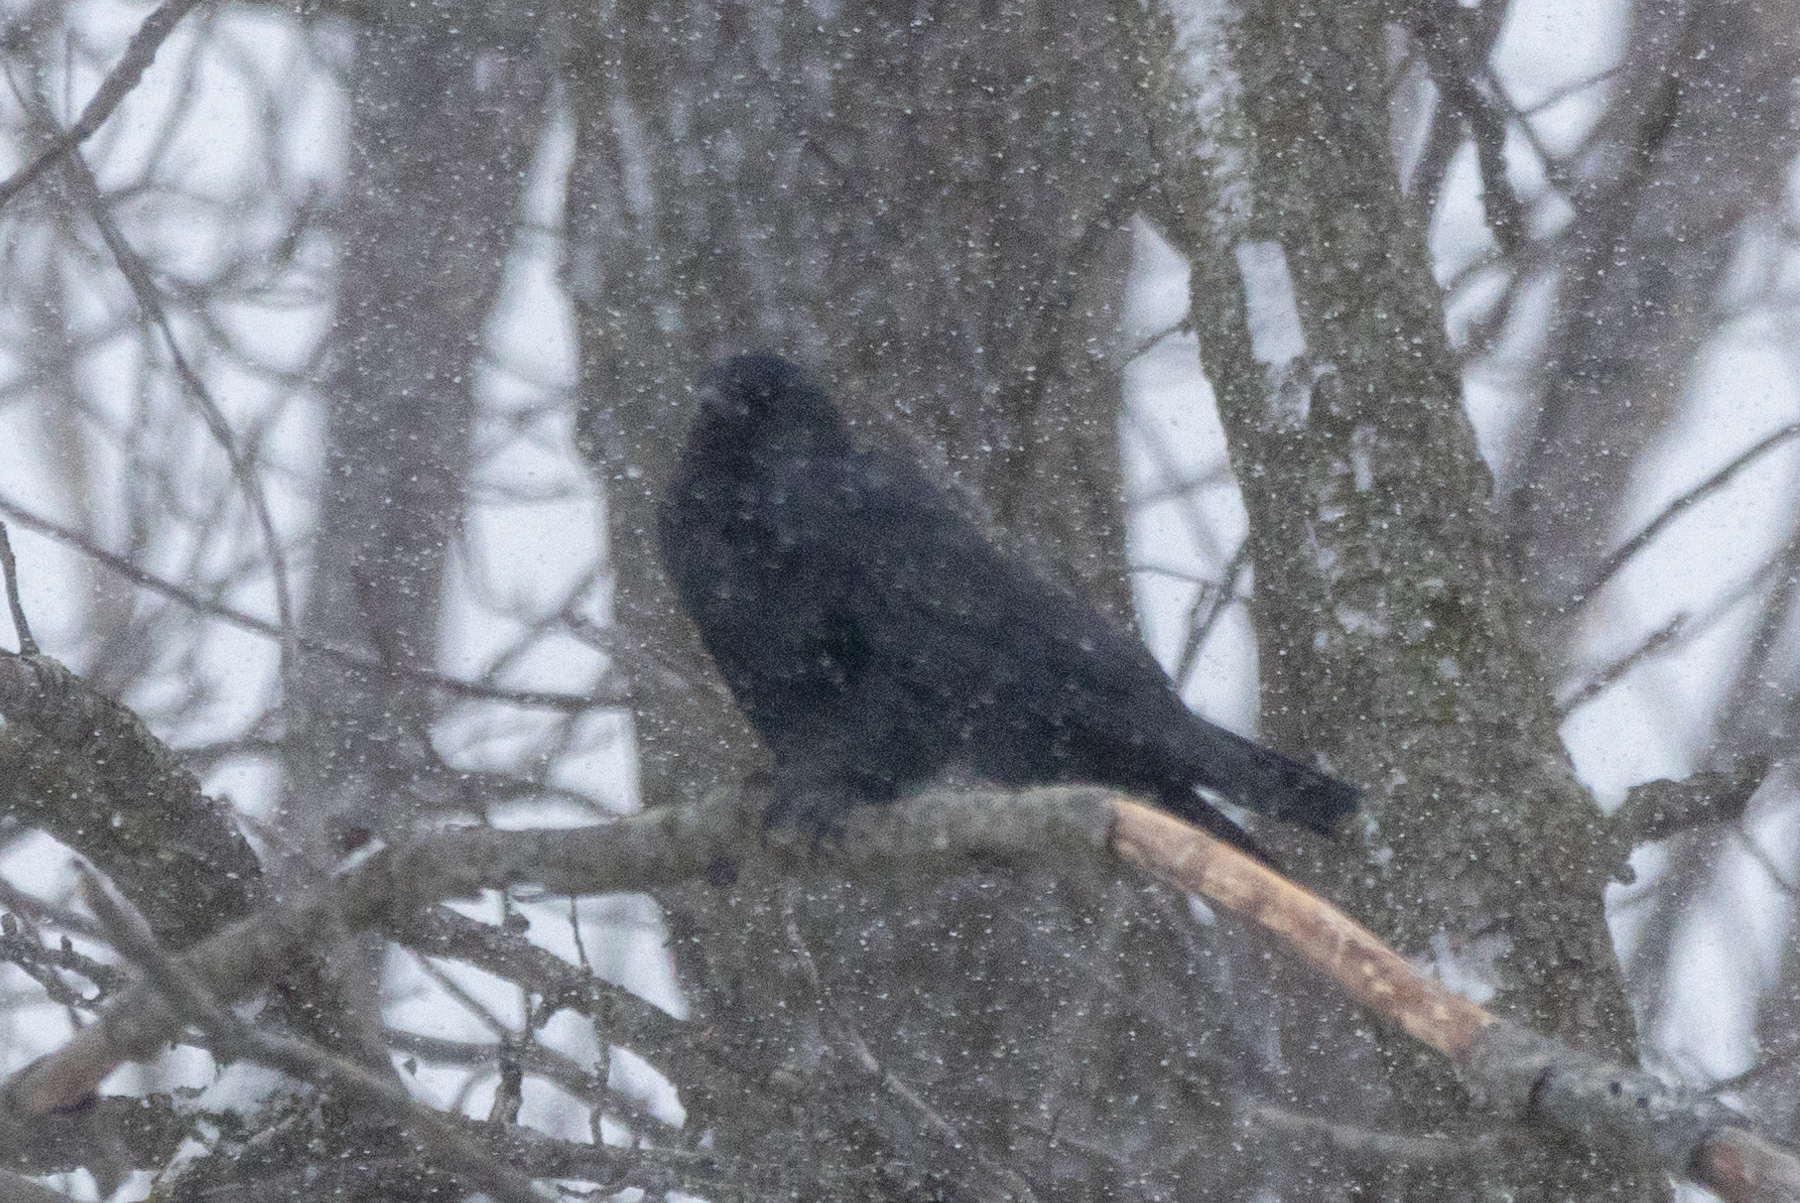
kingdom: Animalia
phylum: Chordata
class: Aves
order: Passeriformes
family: Corvidae
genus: Corvus
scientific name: Corvus brachyrhynchos
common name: American crow
